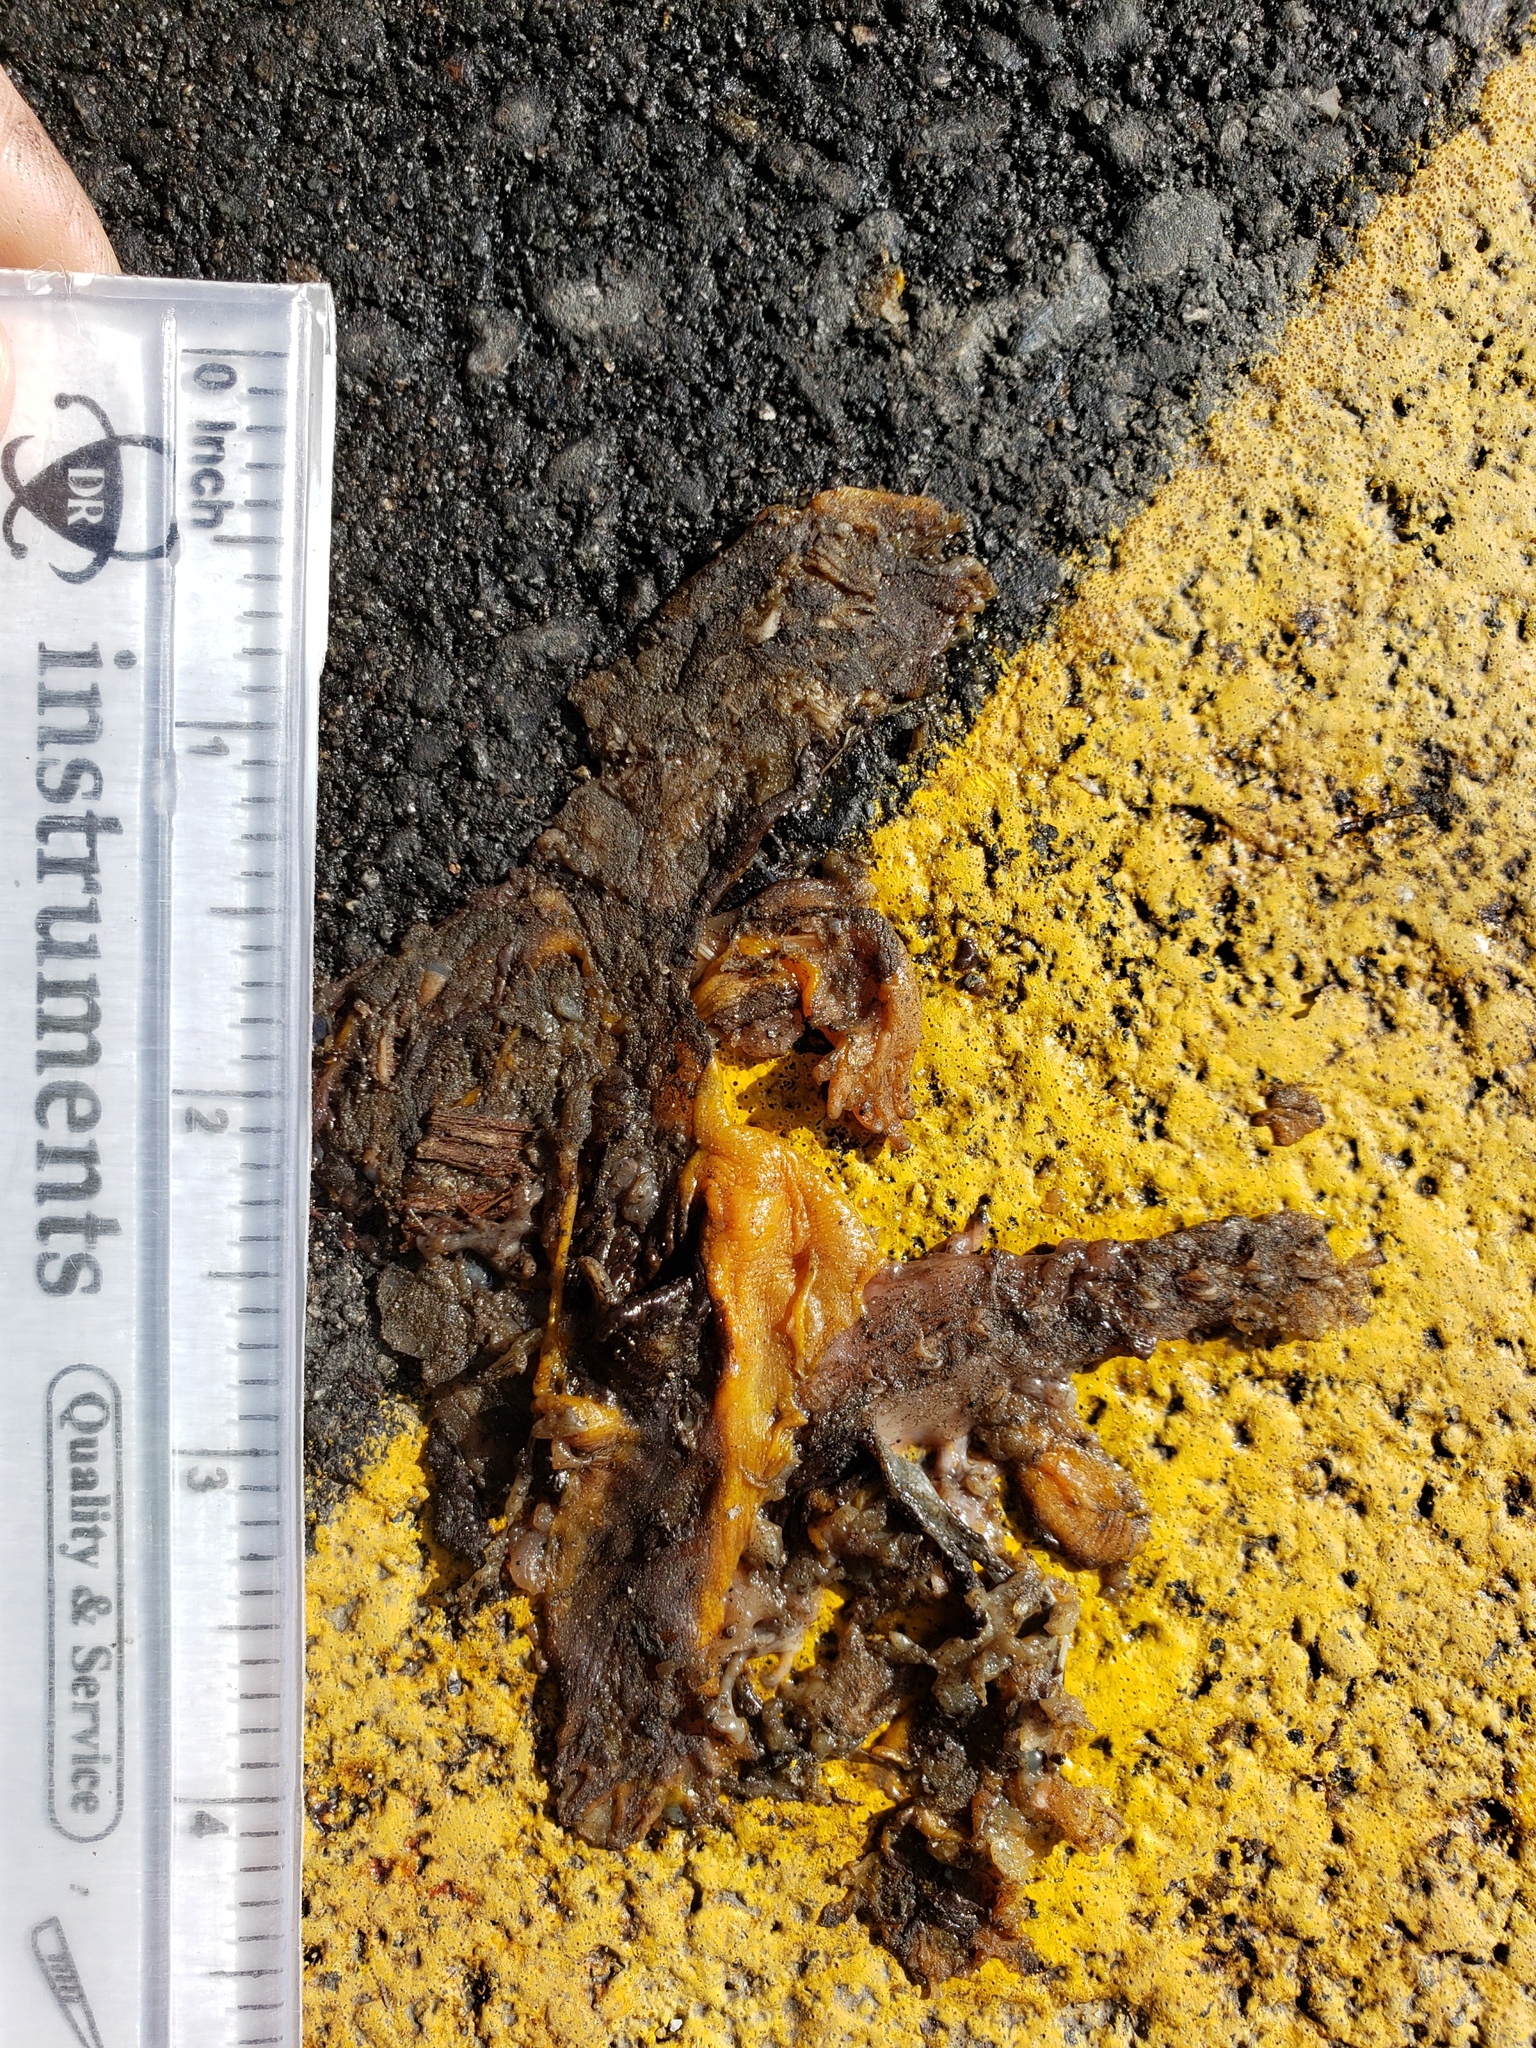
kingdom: Animalia
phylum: Chordata
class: Amphibia
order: Caudata
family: Salamandridae
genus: Taricha
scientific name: Taricha
